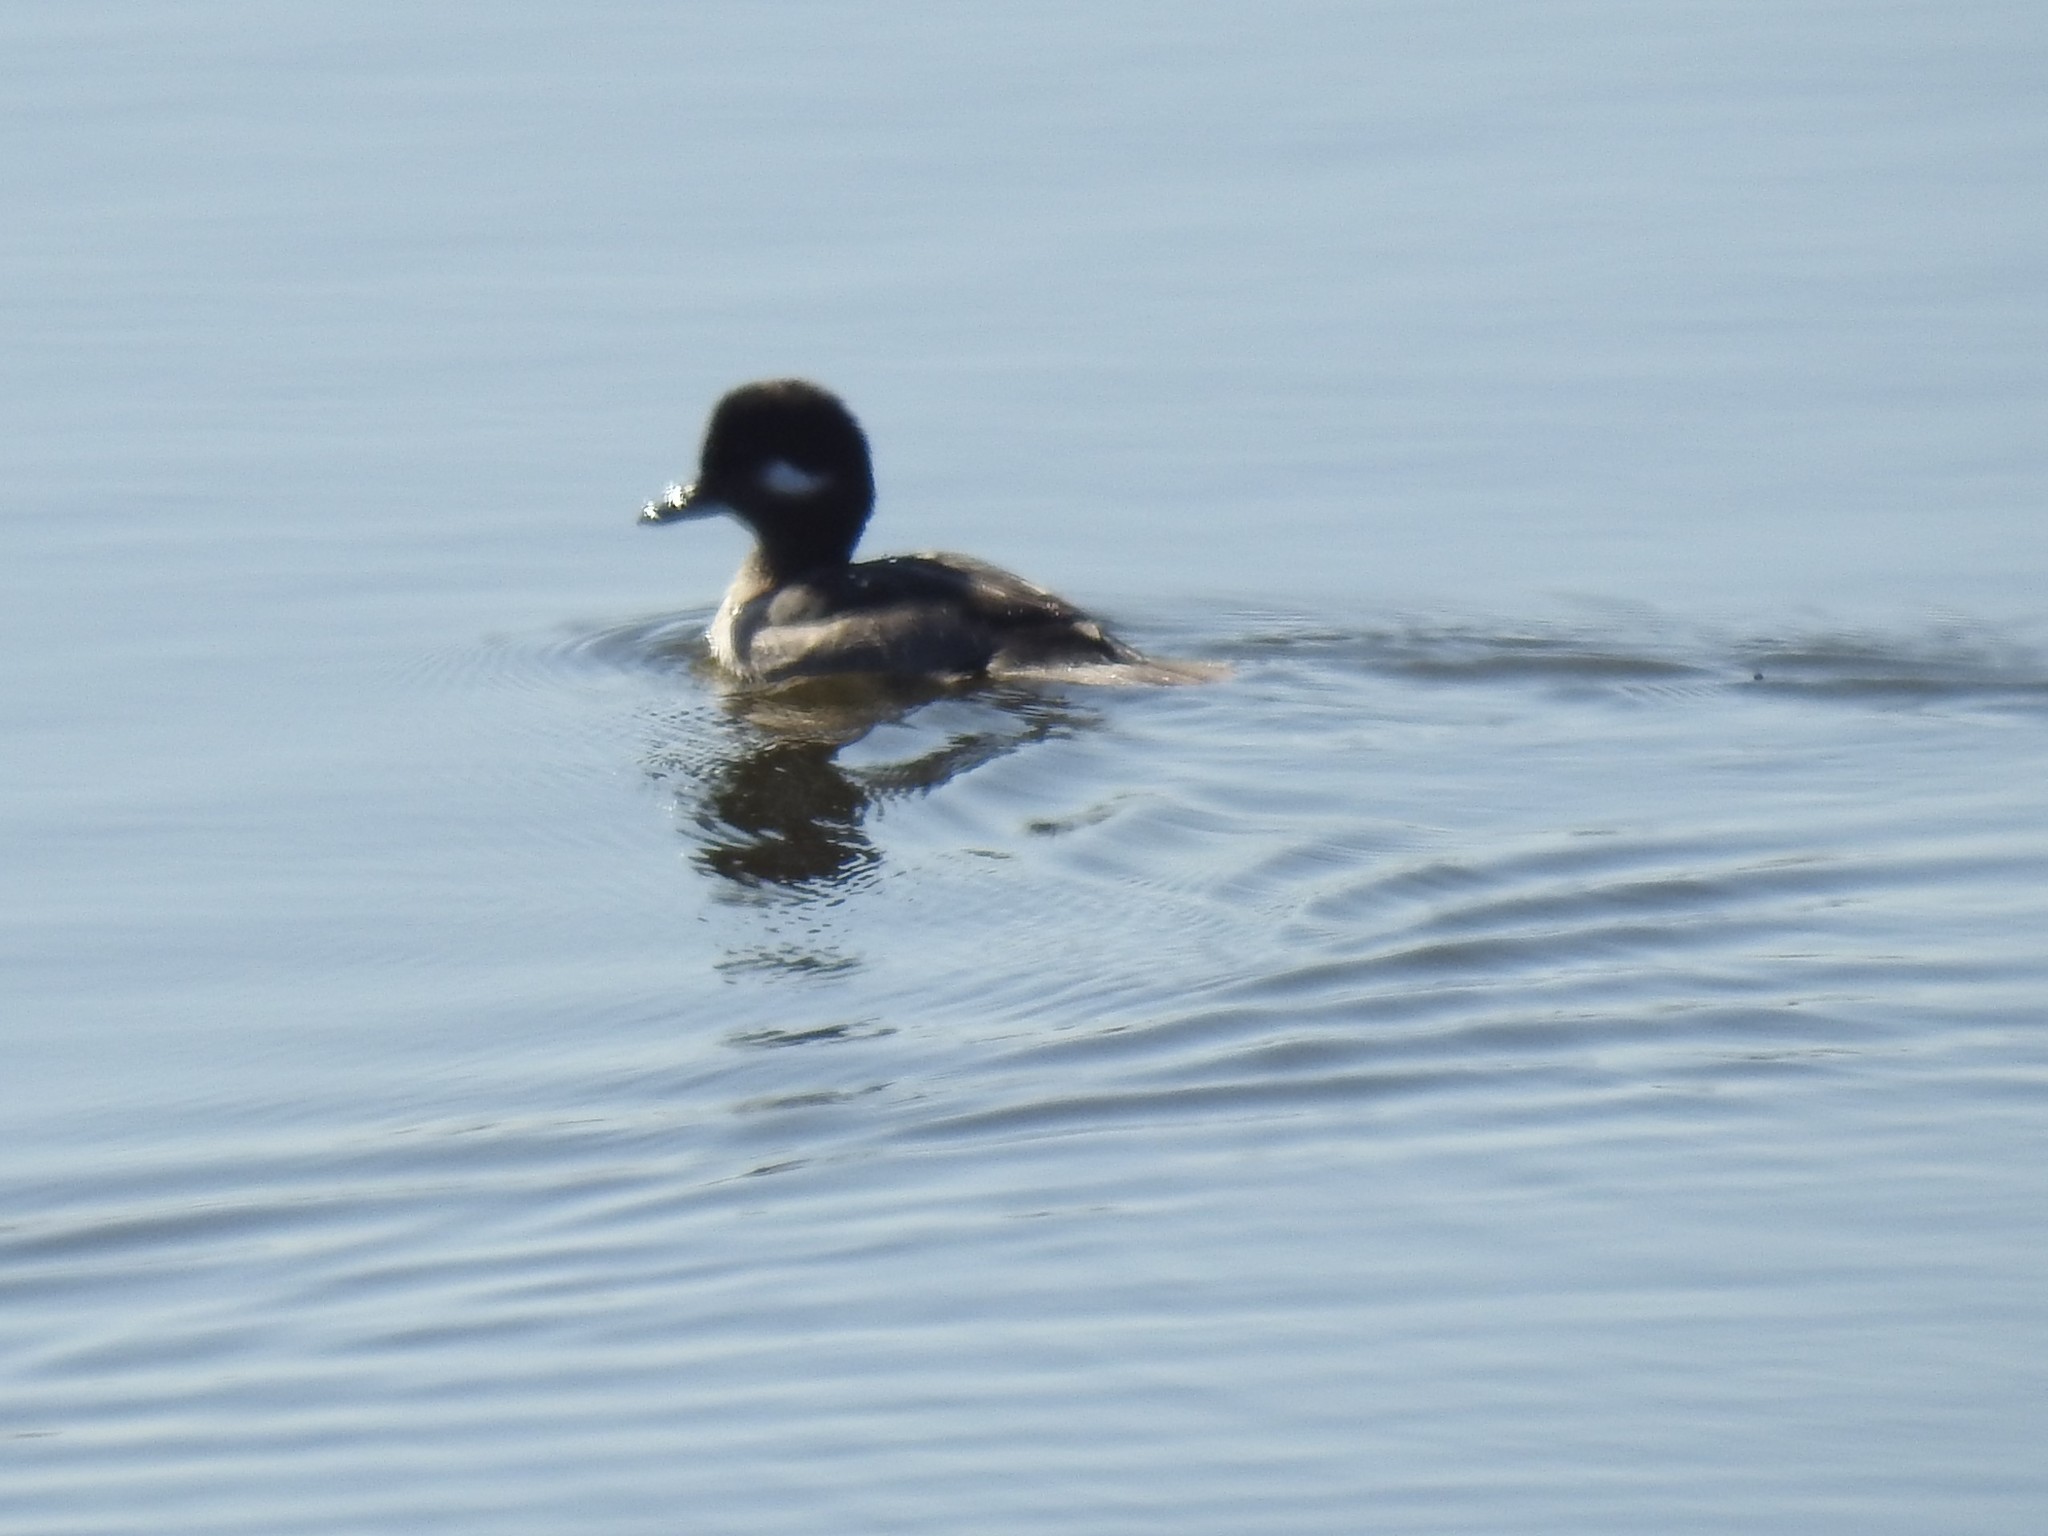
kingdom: Animalia
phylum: Chordata
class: Aves
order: Anseriformes
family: Anatidae
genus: Bucephala
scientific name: Bucephala albeola
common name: Bufflehead
